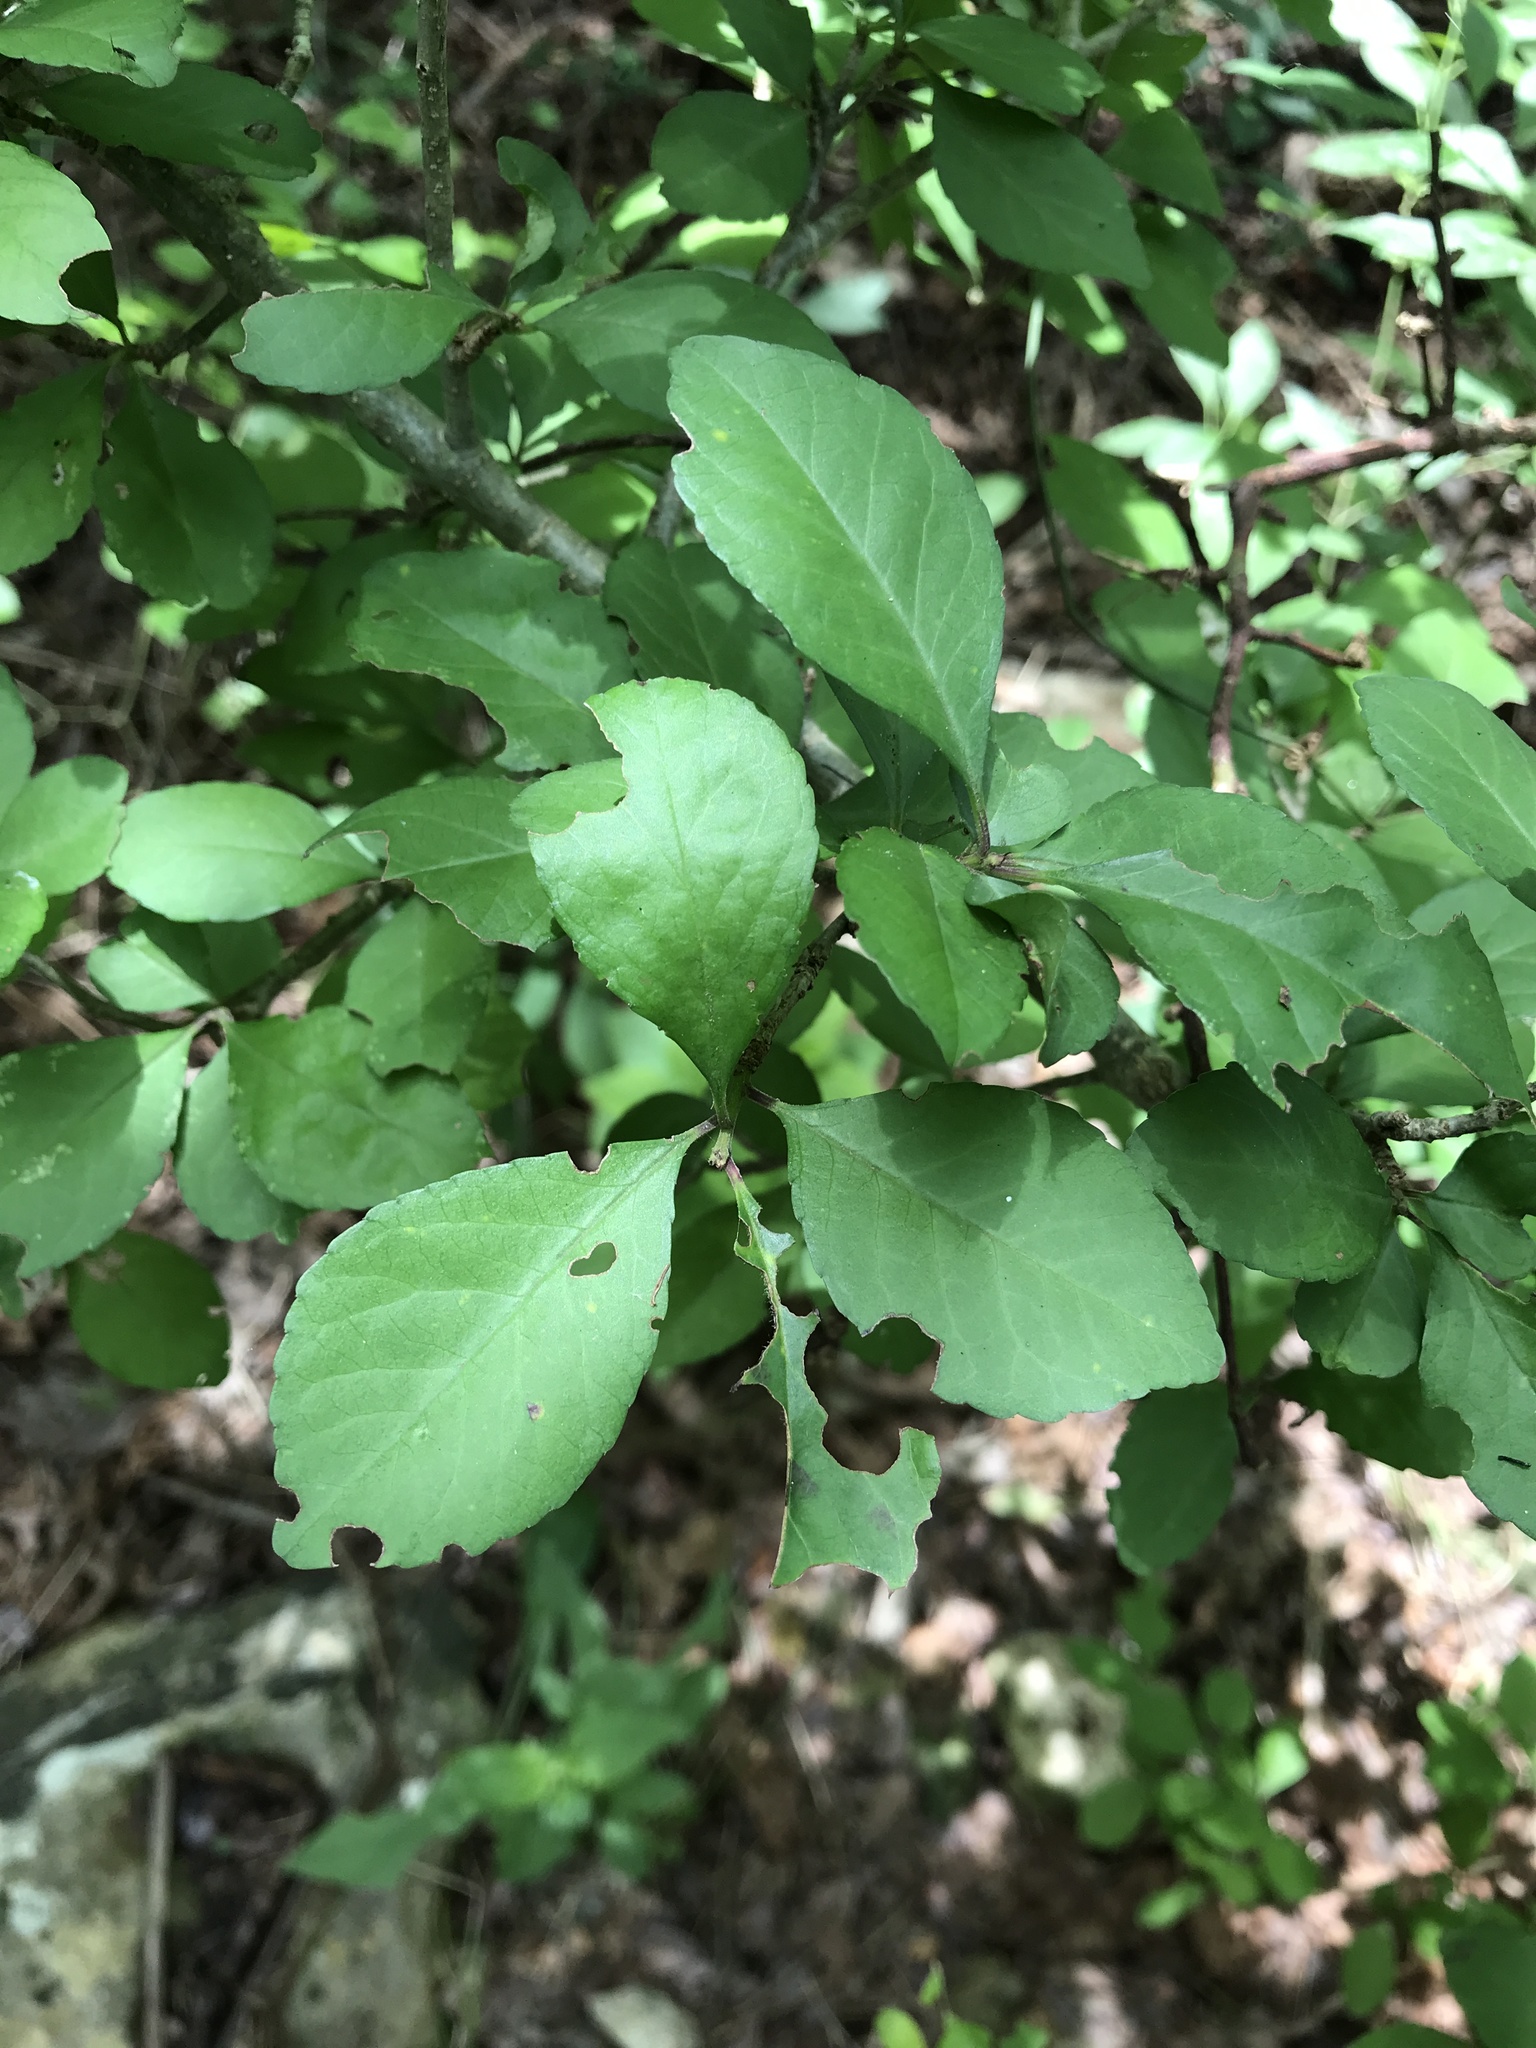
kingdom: Plantae
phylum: Tracheophyta
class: Magnoliopsida
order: Aquifoliales
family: Aquifoliaceae
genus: Ilex
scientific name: Ilex decidua
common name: Possum-haw
